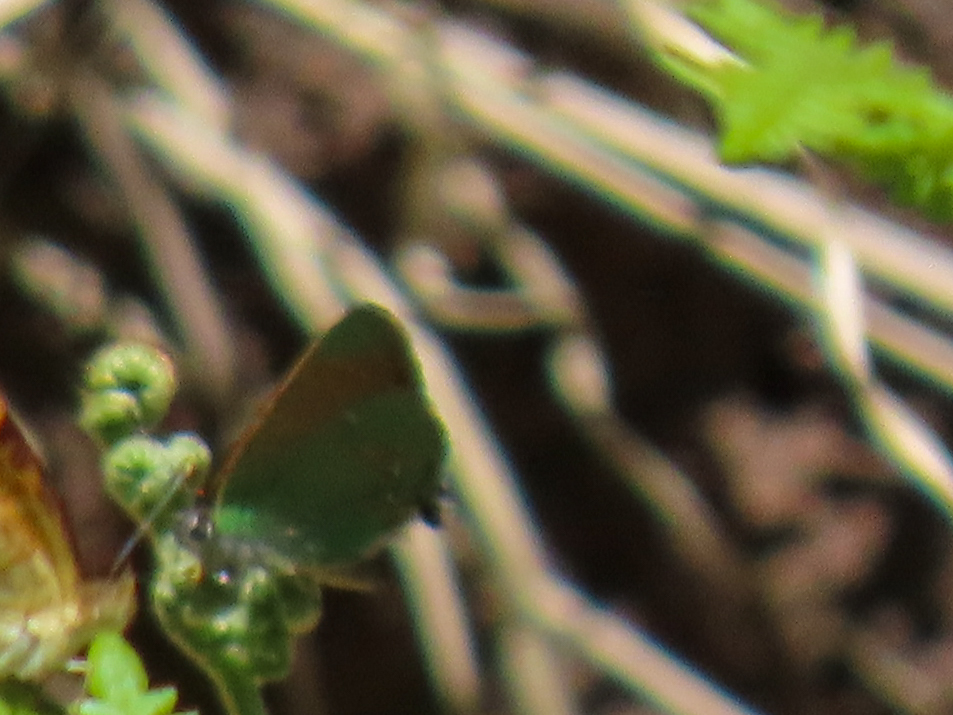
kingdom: Animalia
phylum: Arthropoda
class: Insecta
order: Lepidoptera
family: Lycaenidae
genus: Callophrys
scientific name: Callophrys apama
